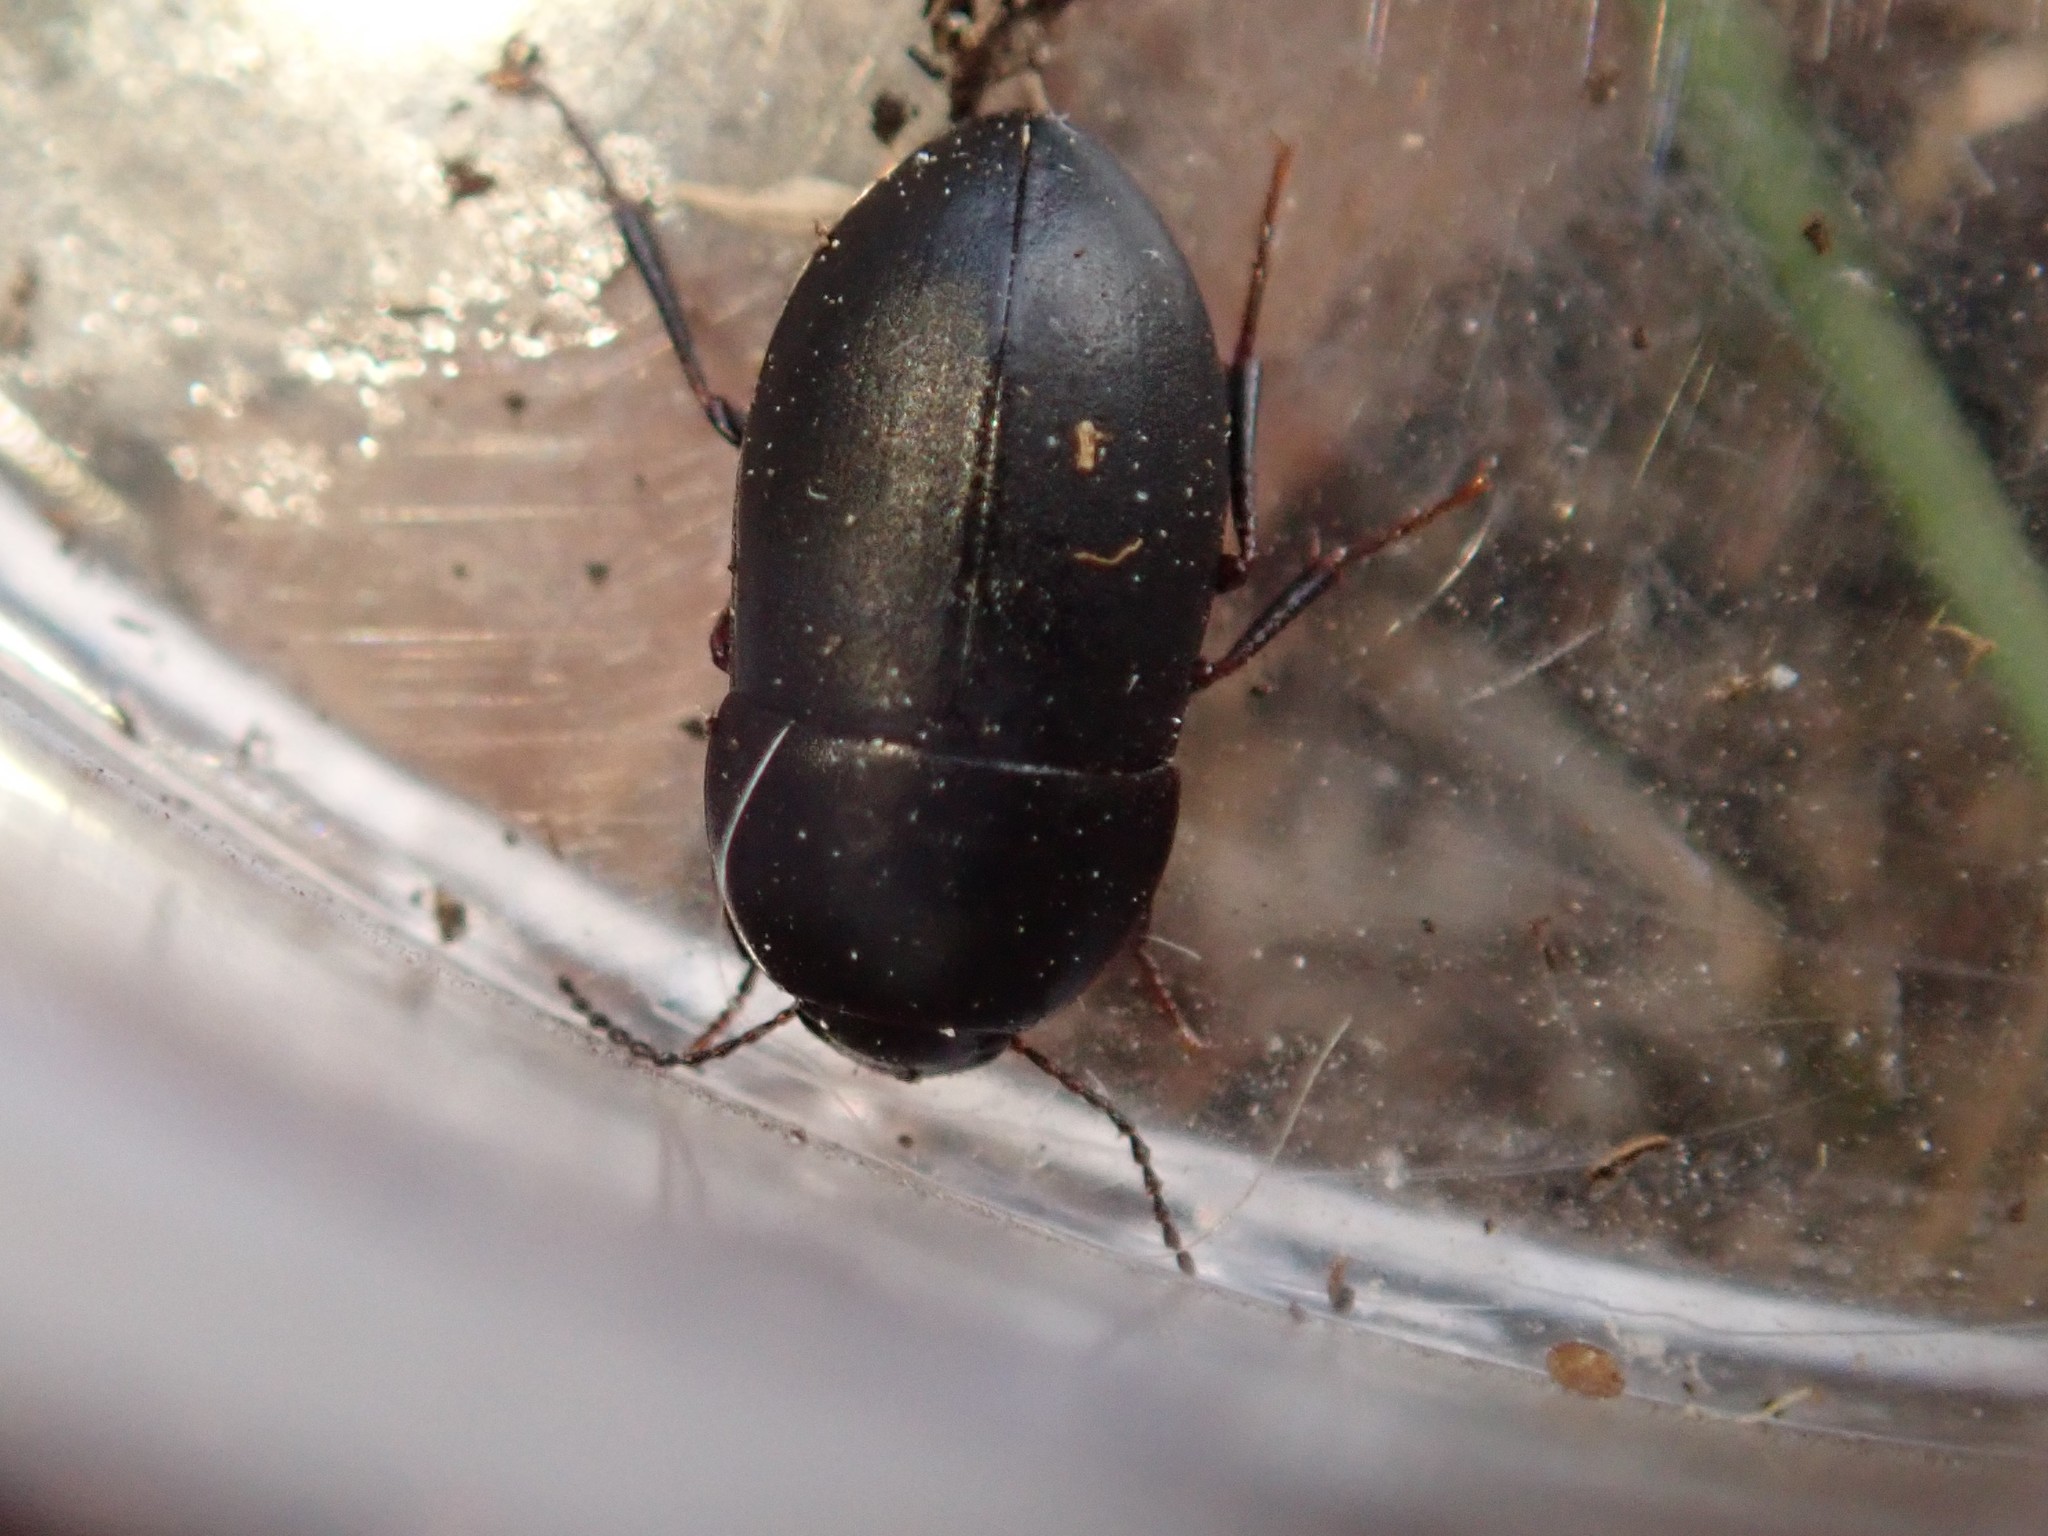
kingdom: Animalia
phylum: Arthropoda
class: Insecta
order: Coleoptera
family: Tenebrionidae
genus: Crypticus
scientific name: Crypticus quisquilius
